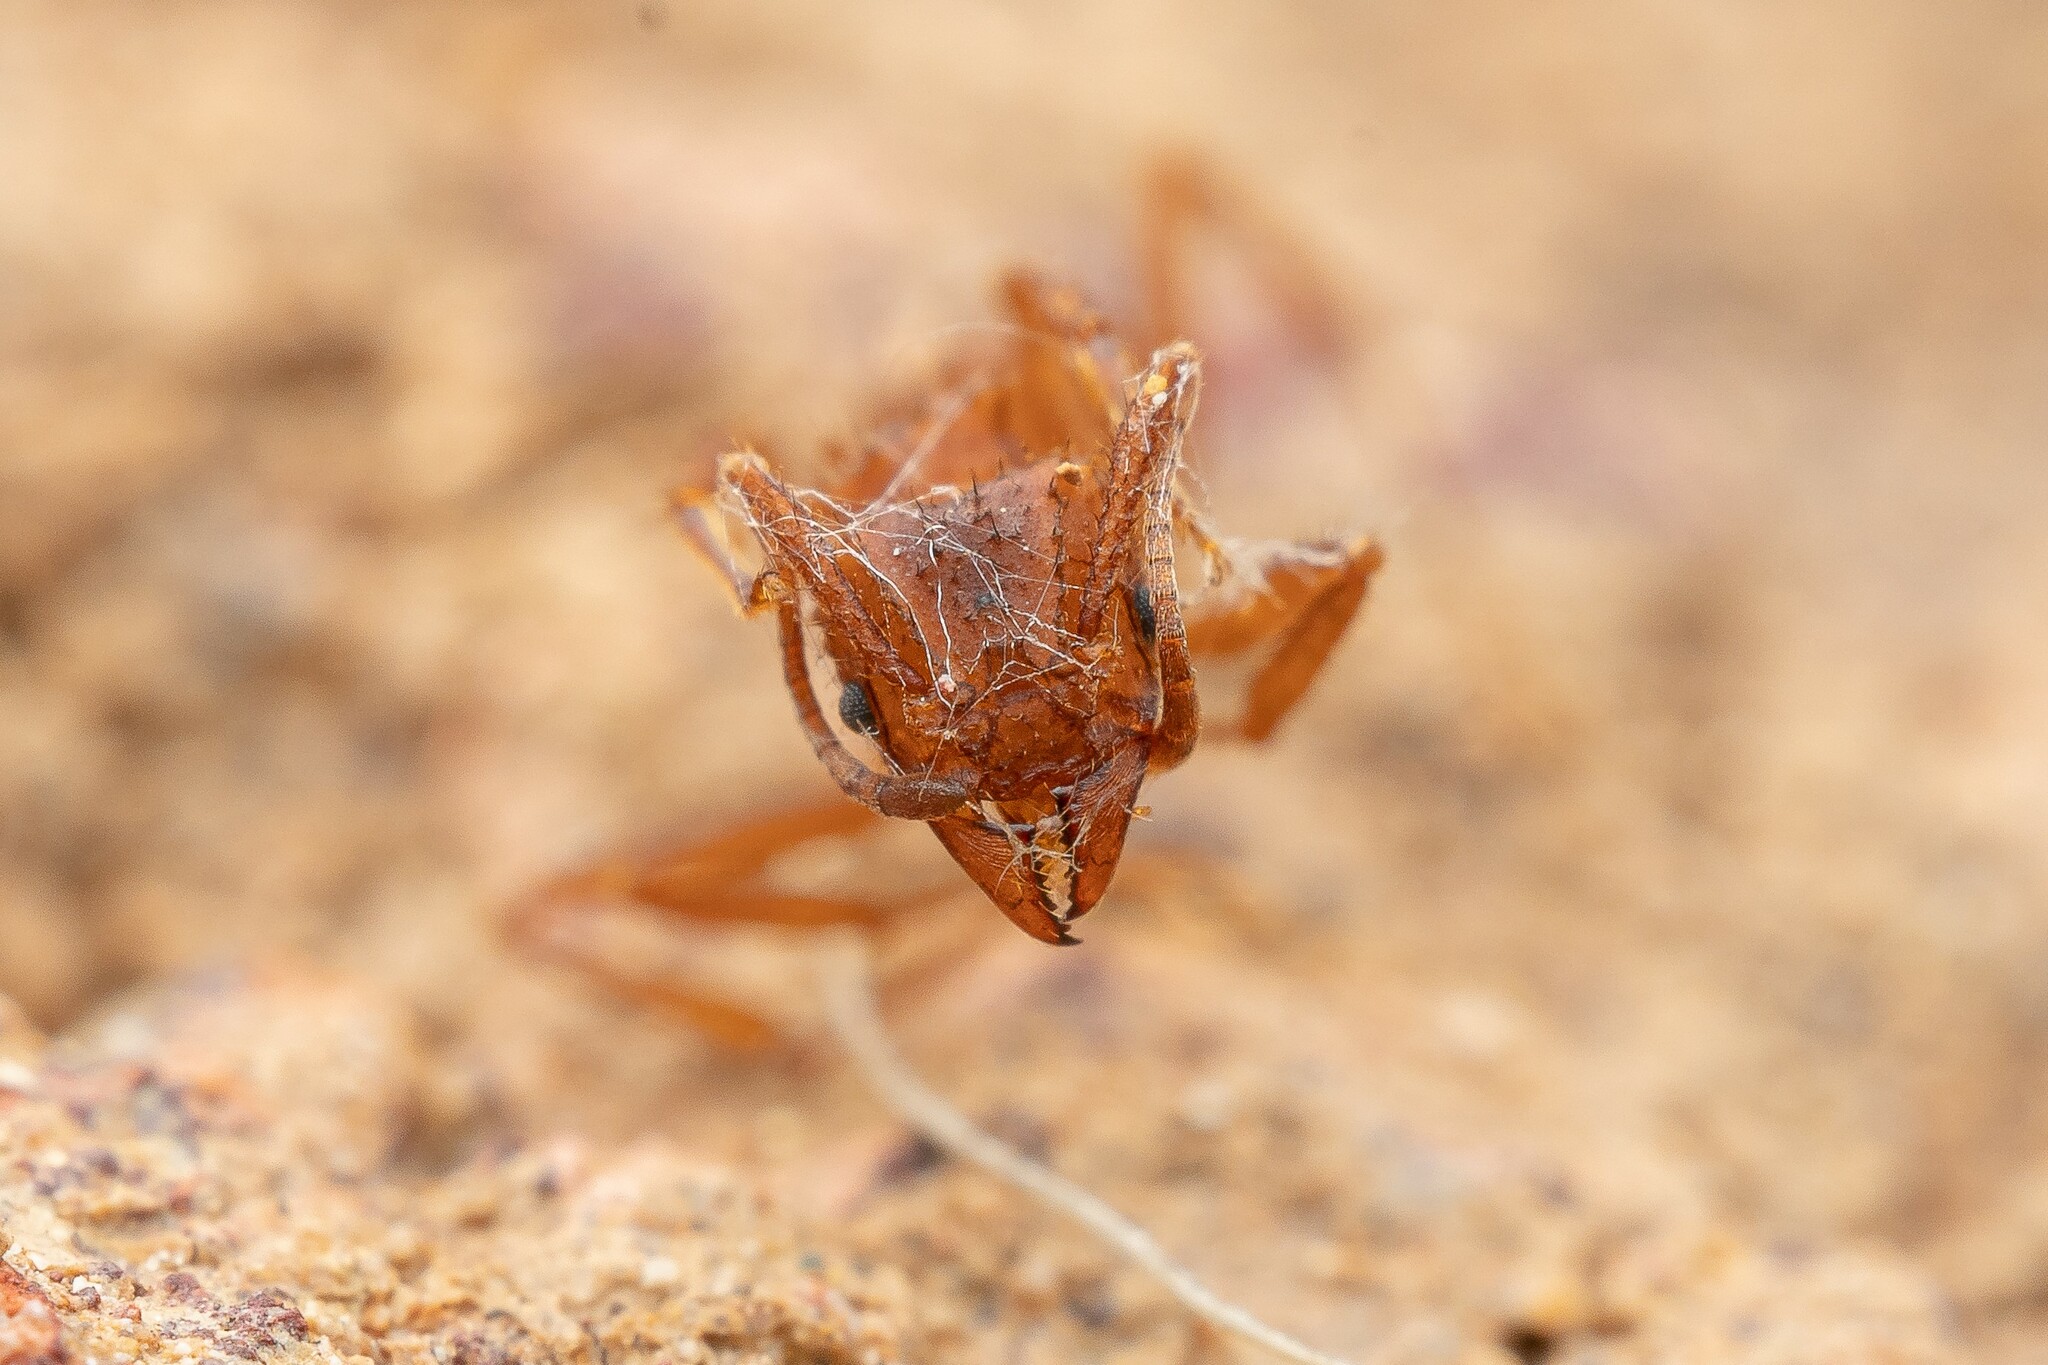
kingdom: Animalia
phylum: Arthropoda
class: Insecta
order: Hymenoptera
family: Formicidae
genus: Trachymyrmex
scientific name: Trachymyrmex arizonensis
